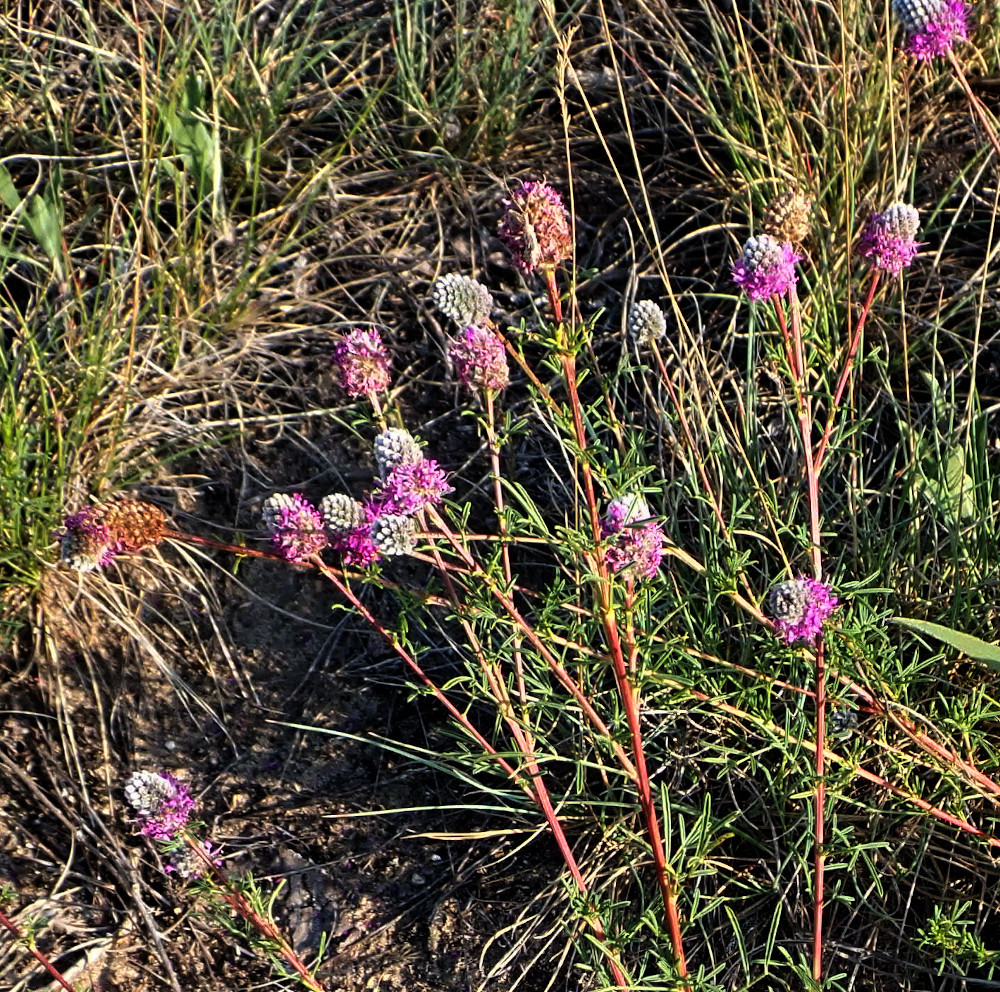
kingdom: Plantae
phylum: Tracheophyta
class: Magnoliopsida
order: Fabales
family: Fabaceae
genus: Dalea
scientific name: Dalea purpurea
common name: Purple prairie-clover
